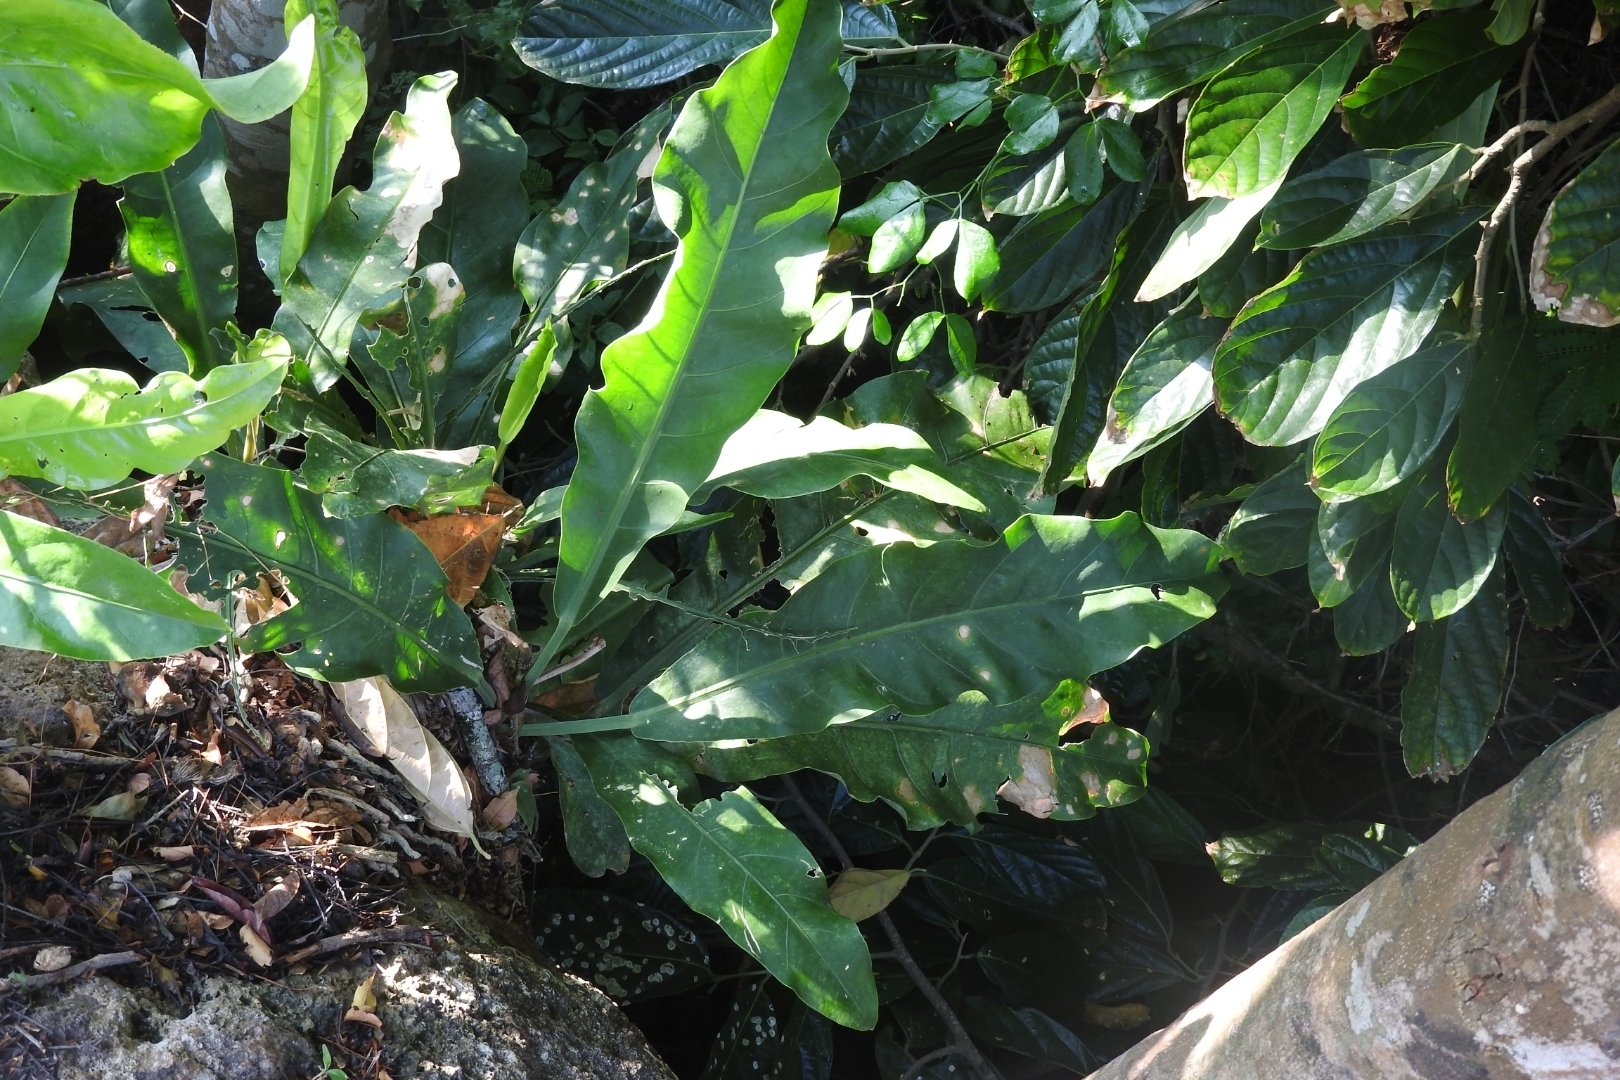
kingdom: Plantae
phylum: Tracheophyta
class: Liliopsida
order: Alismatales
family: Araceae
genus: Anthurium
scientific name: Anthurium schlechtendalii
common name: Laceleaf
